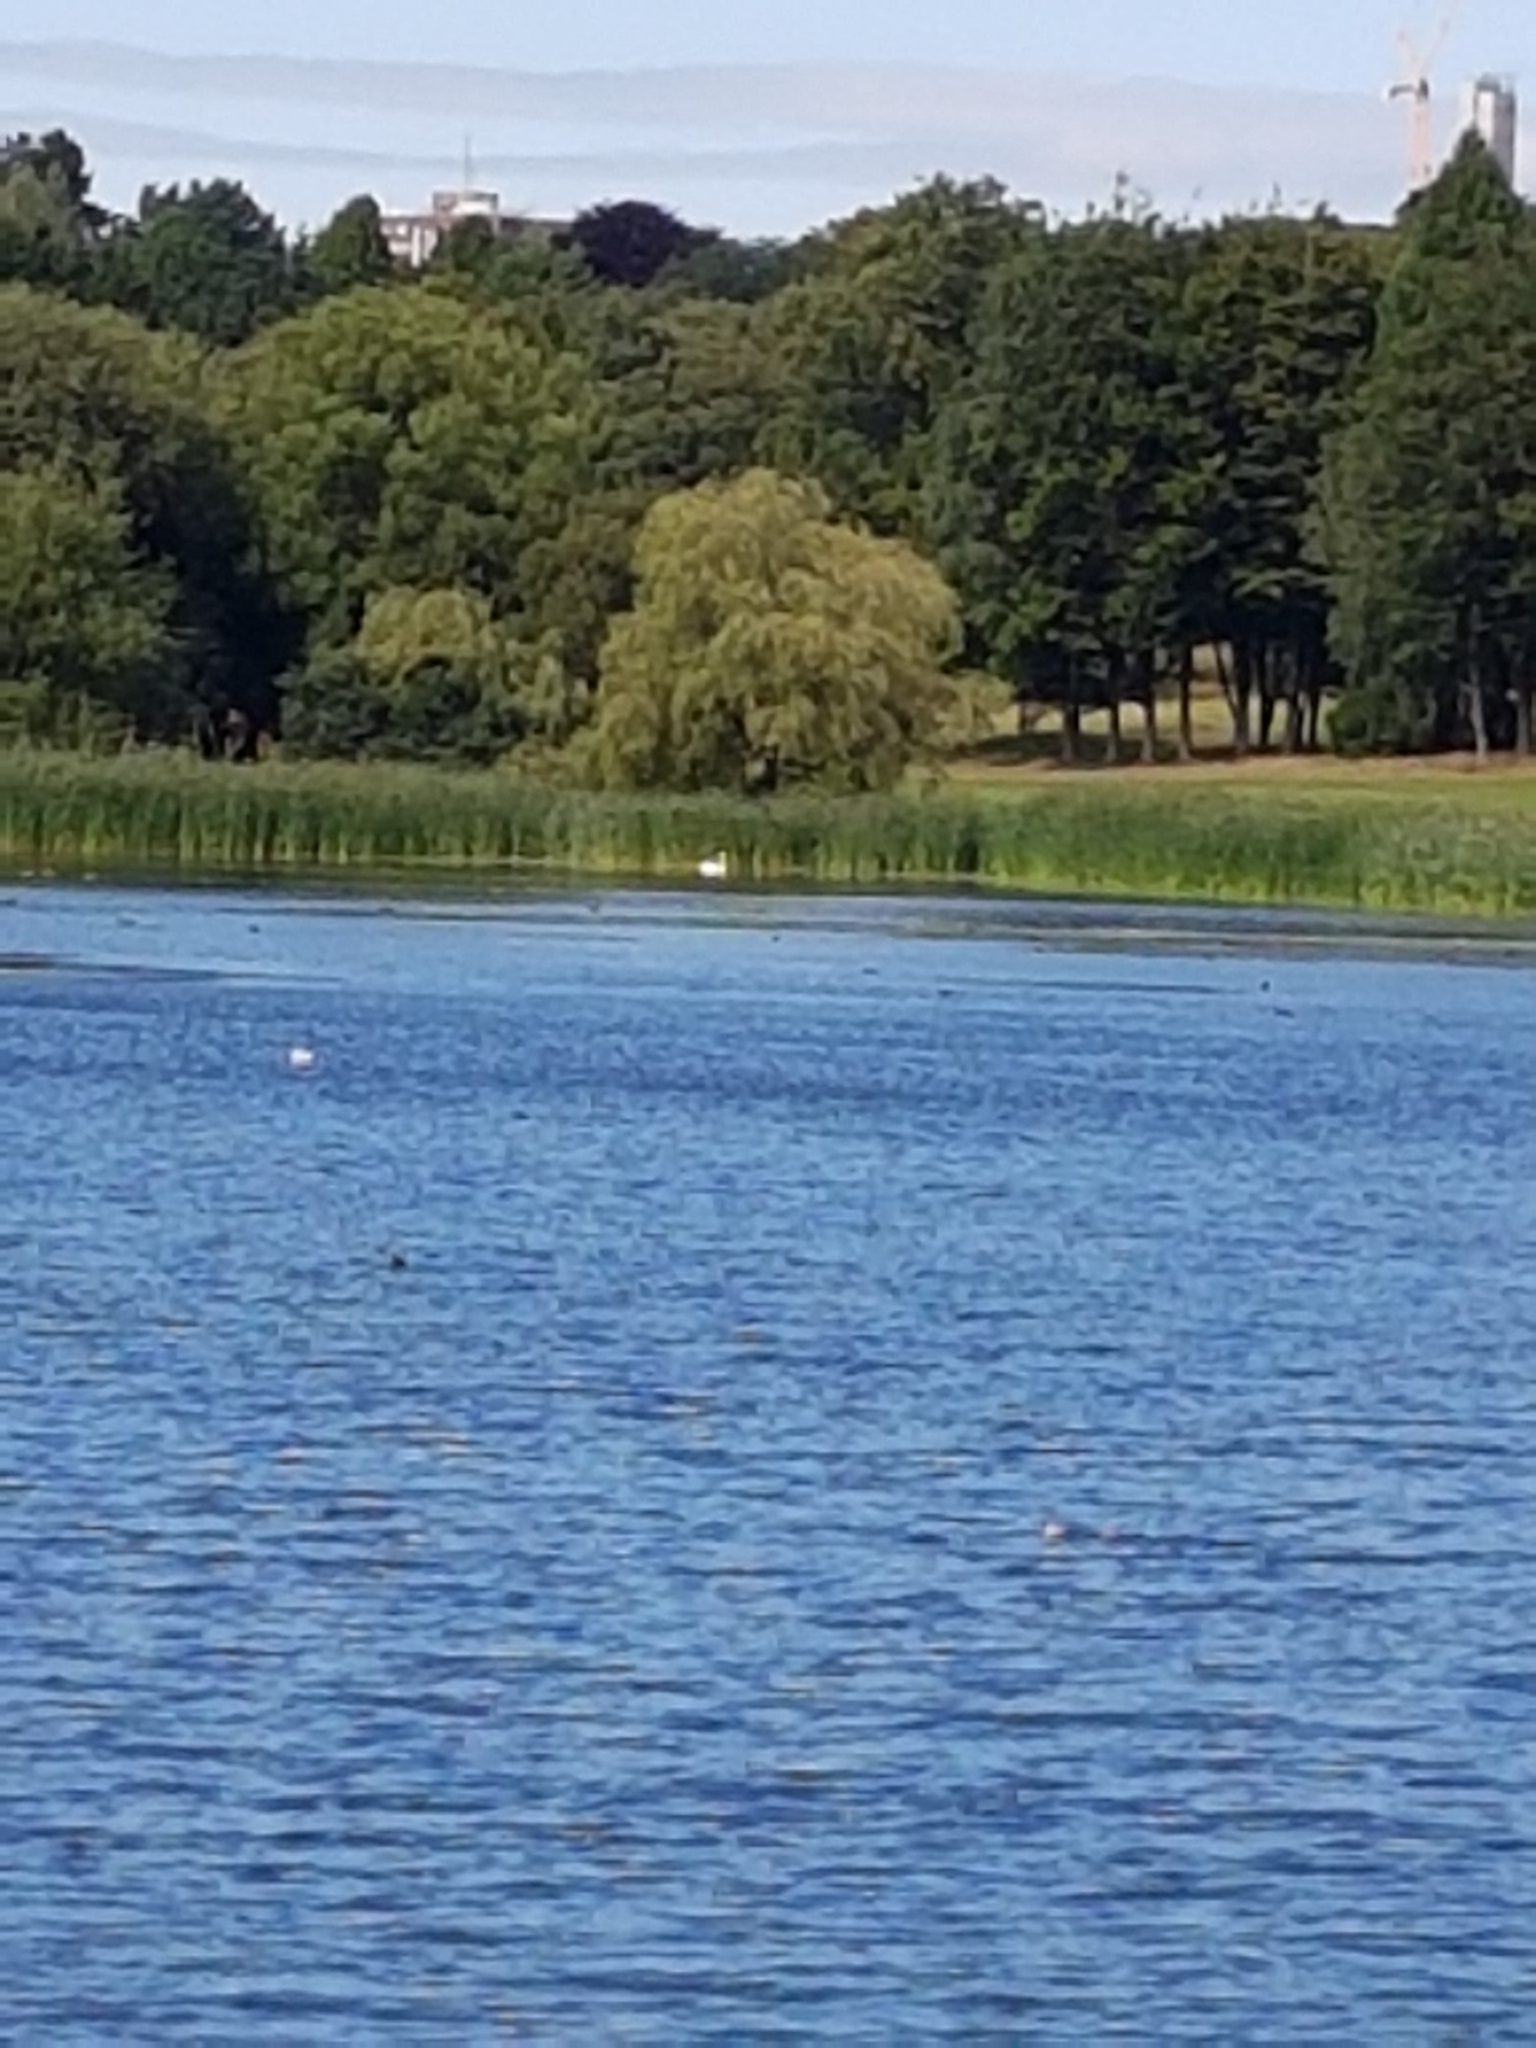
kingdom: Animalia
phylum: Chordata
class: Aves
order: Anseriformes
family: Anatidae
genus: Cygnus
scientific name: Cygnus
